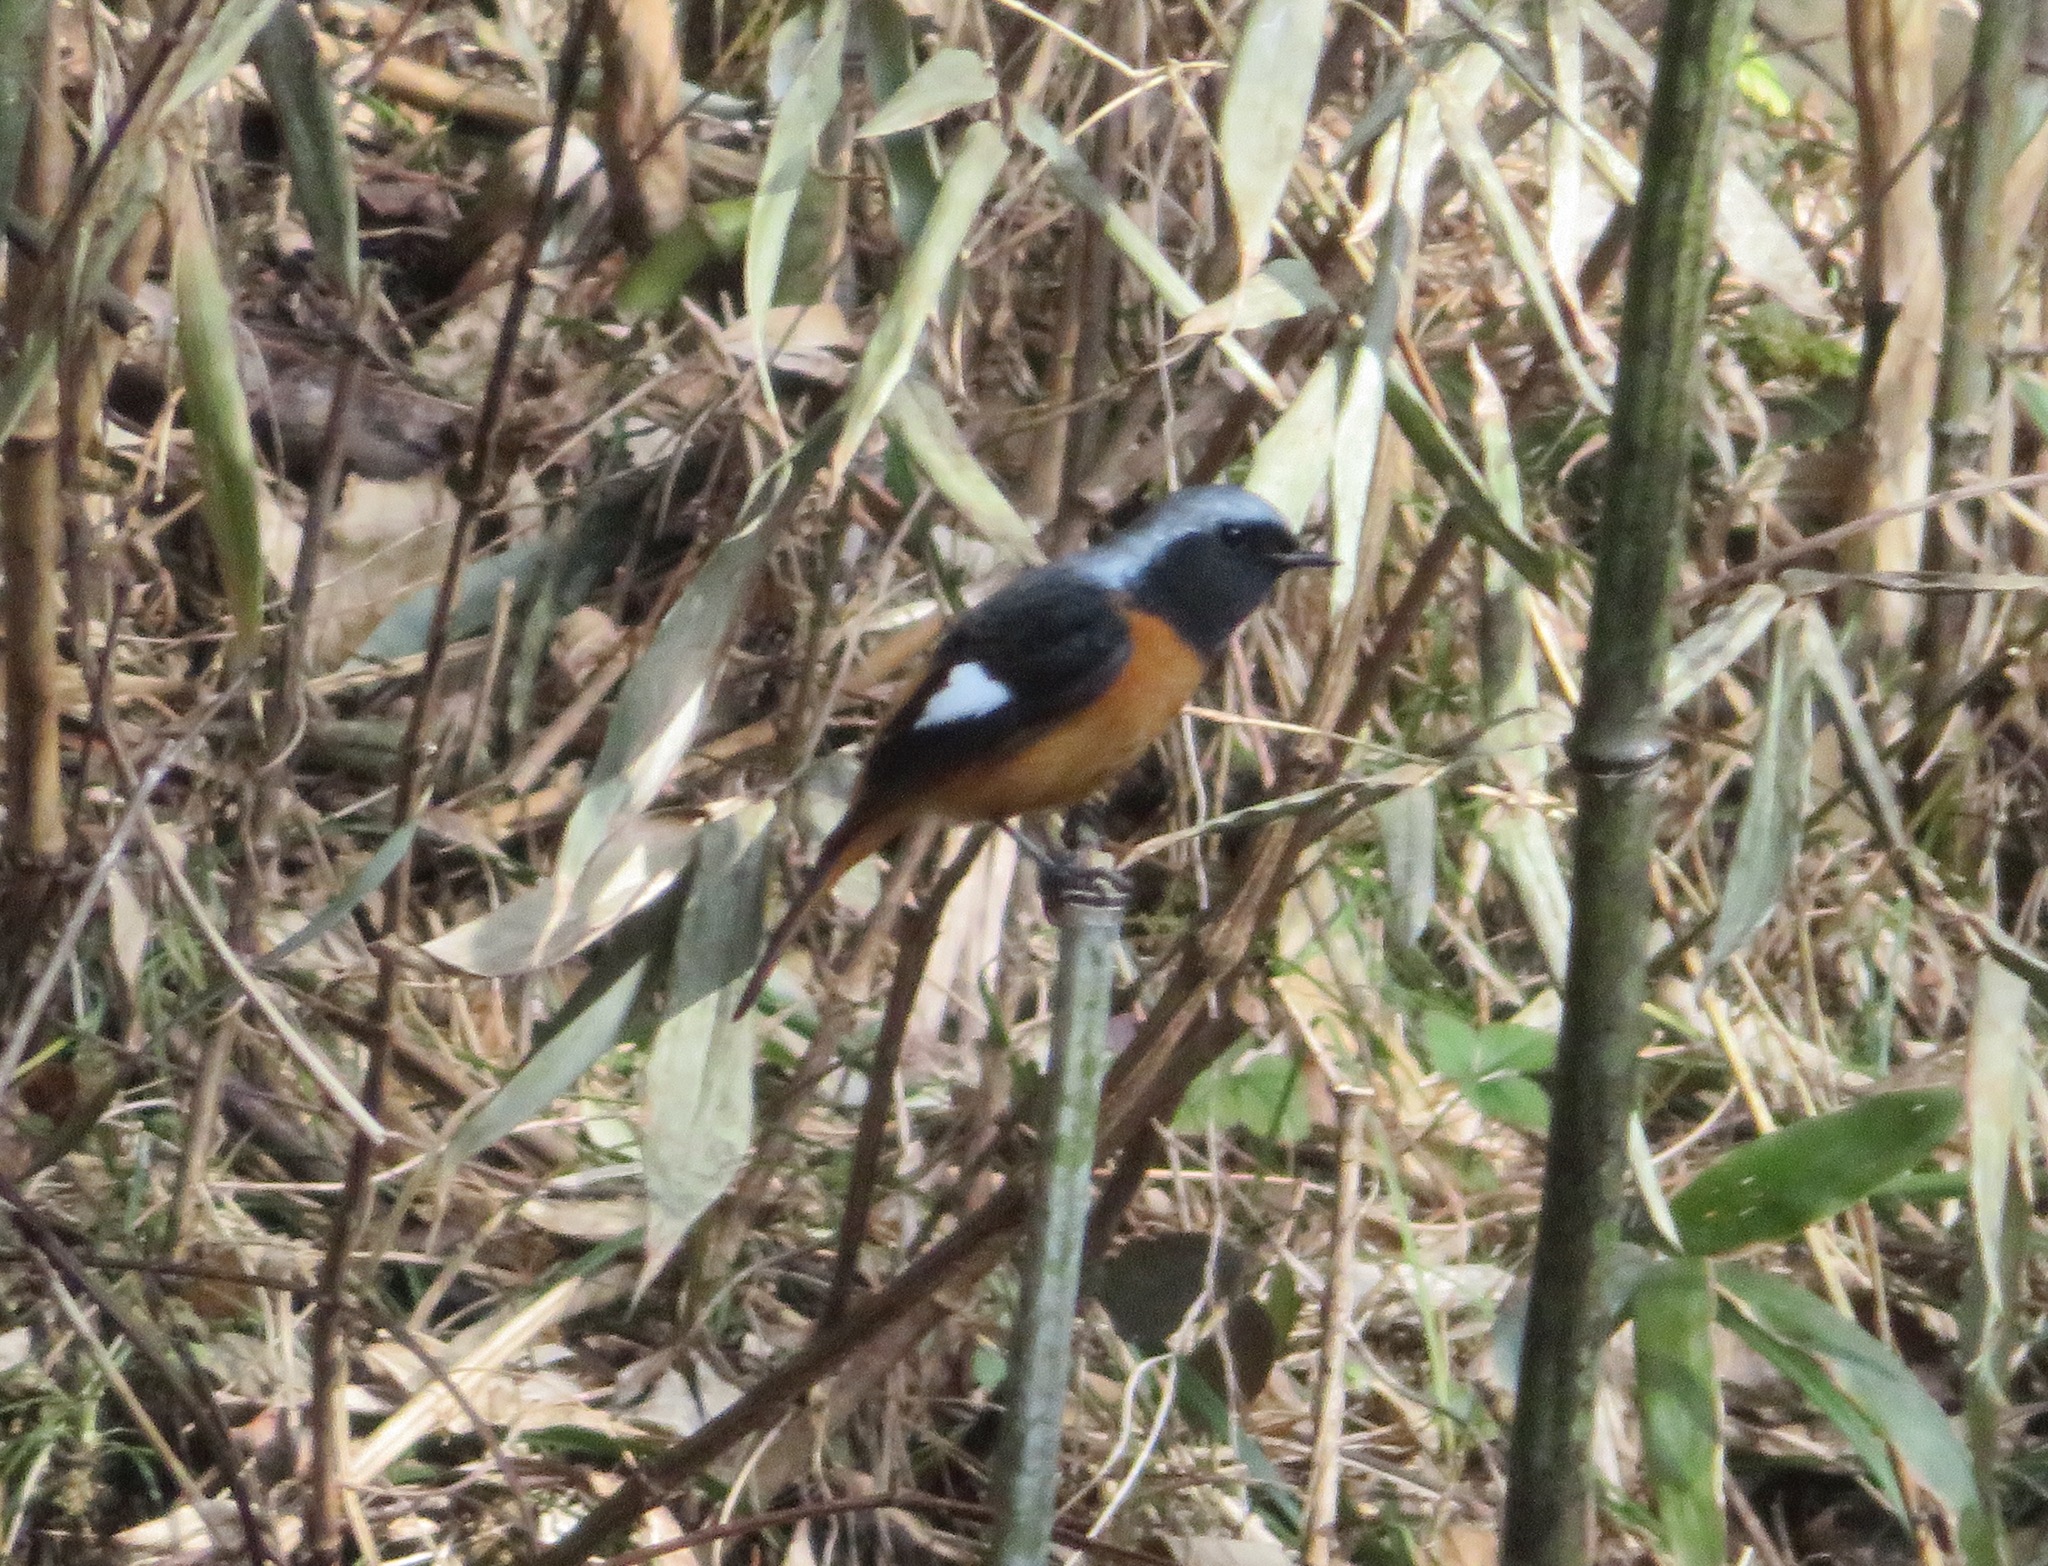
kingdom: Animalia
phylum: Chordata
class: Aves
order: Passeriformes
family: Muscicapidae
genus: Phoenicurus
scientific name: Phoenicurus auroreus
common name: Daurian redstart
